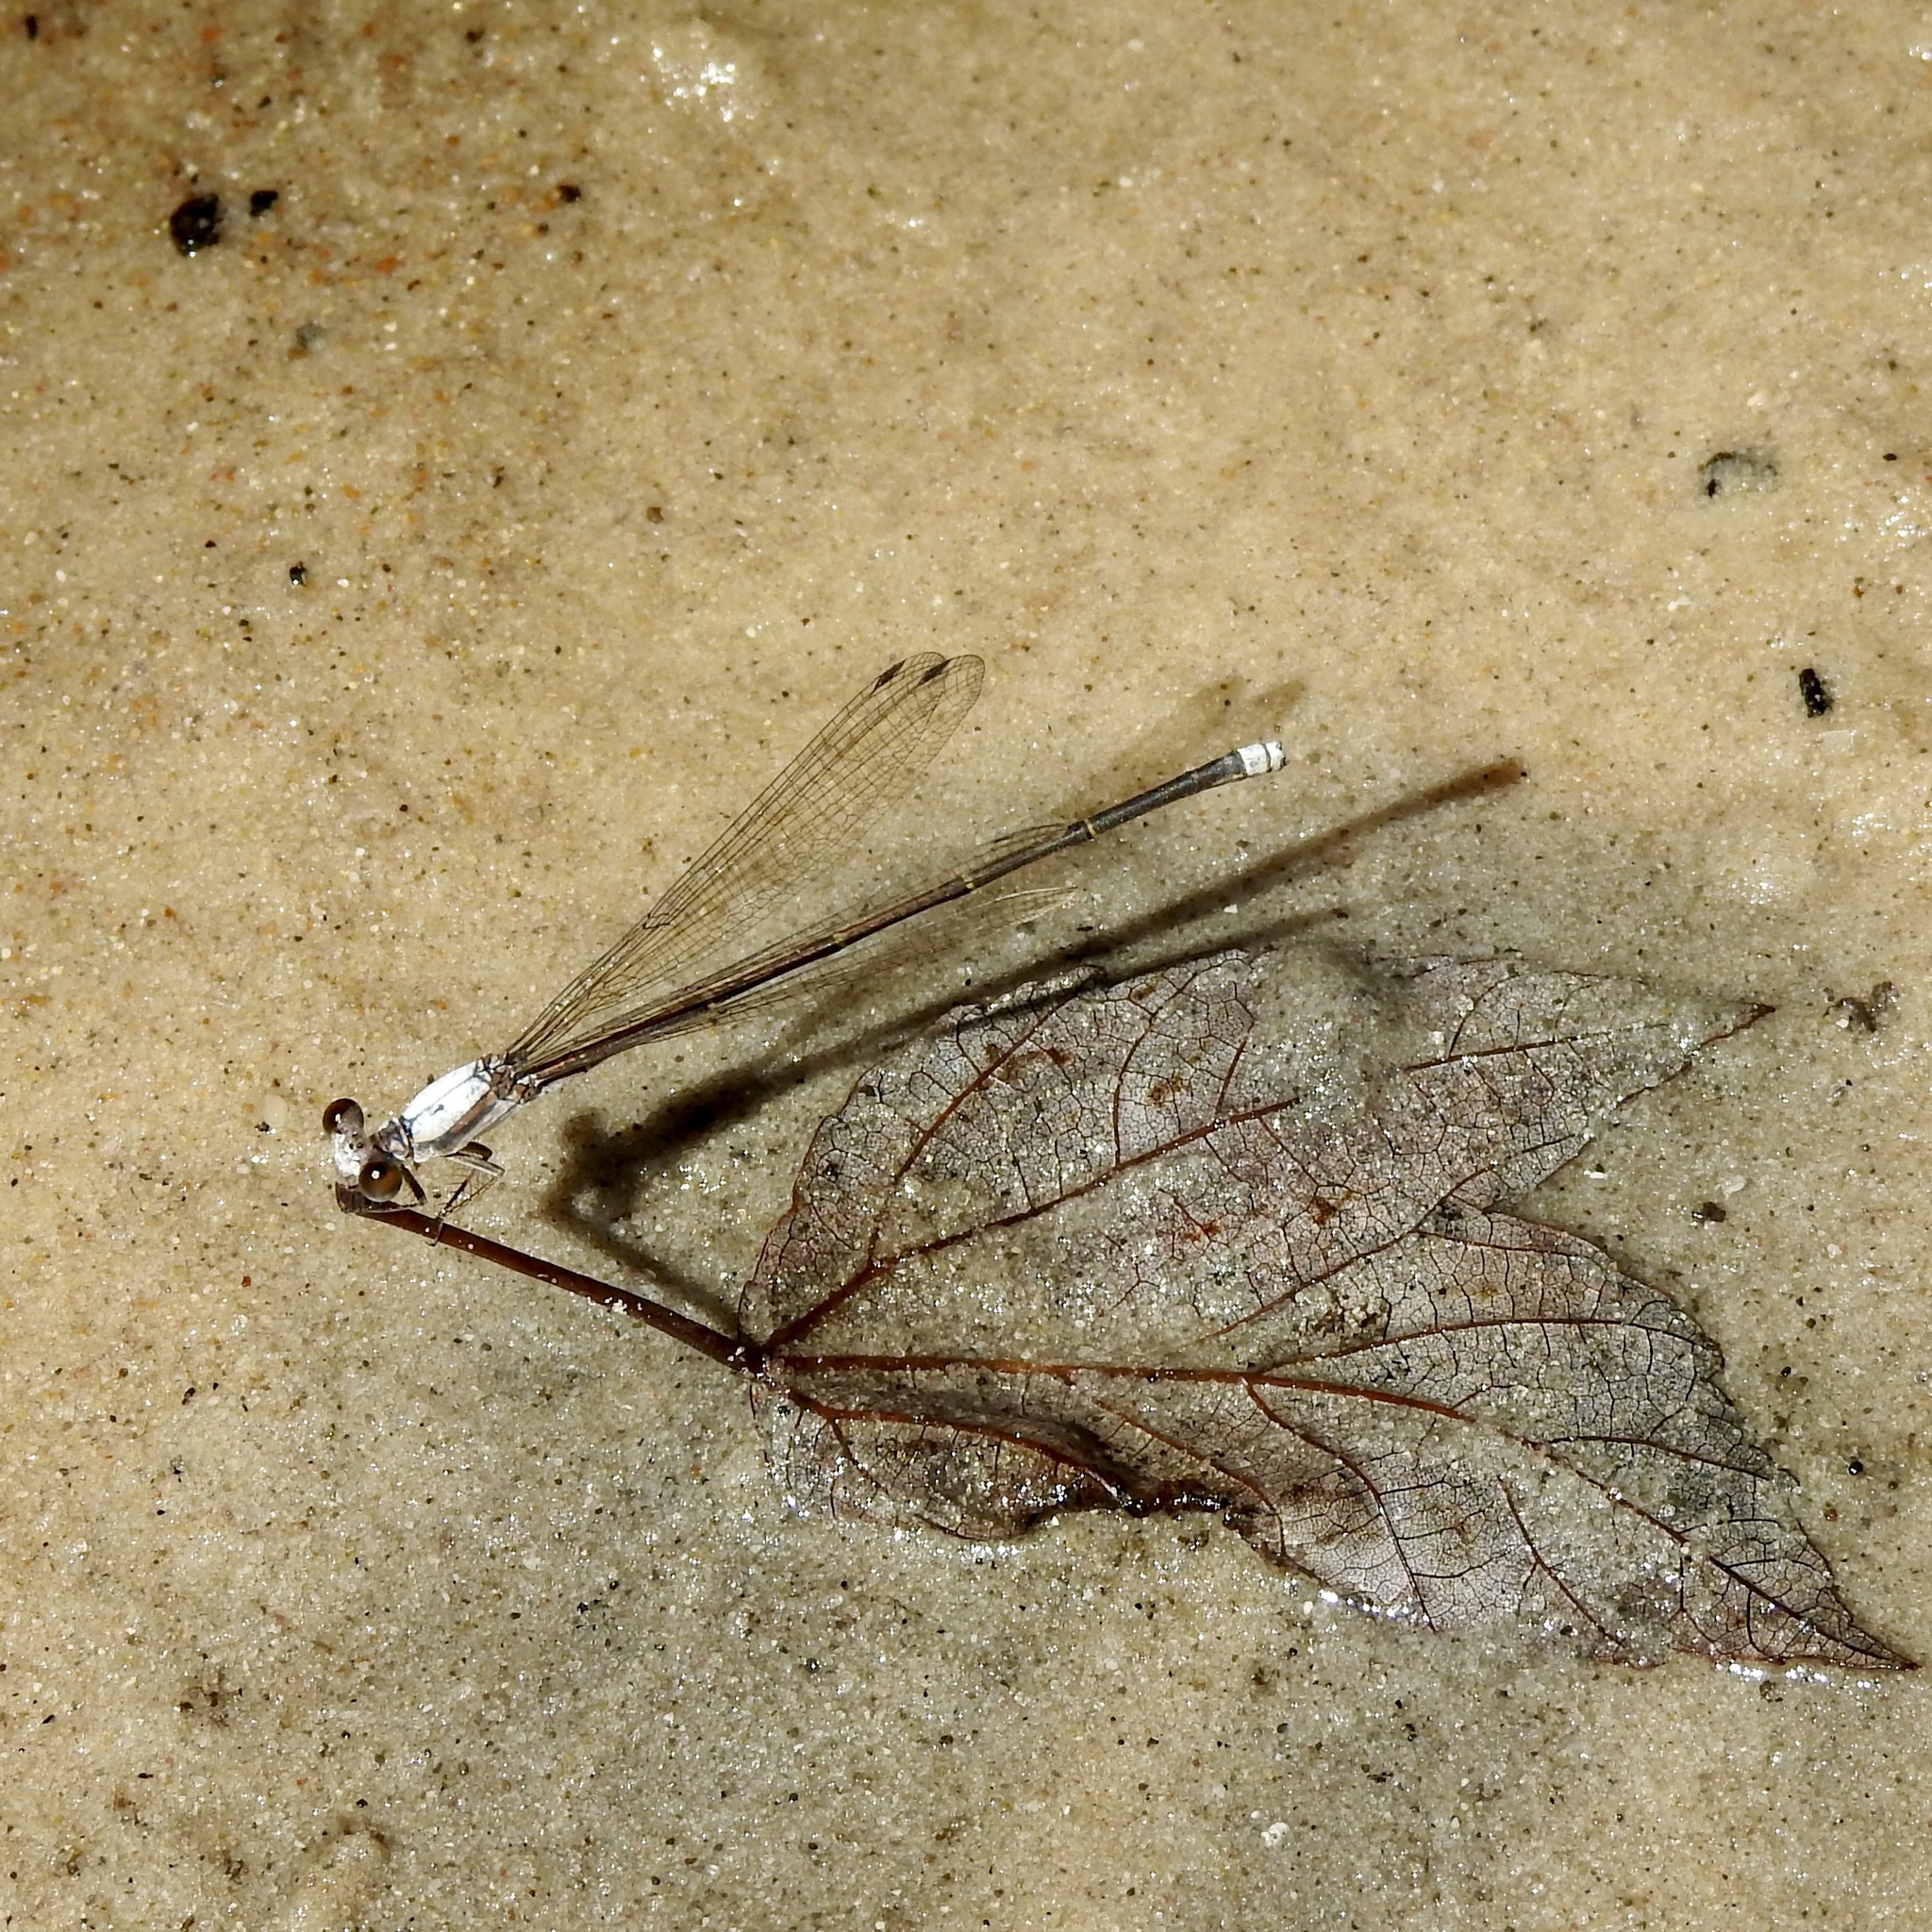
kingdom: Animalia
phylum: Arthropoda
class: Insecta
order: Odonata
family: Coenagrionidae
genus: Argia
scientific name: Argia moesta
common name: Powdered dancer
